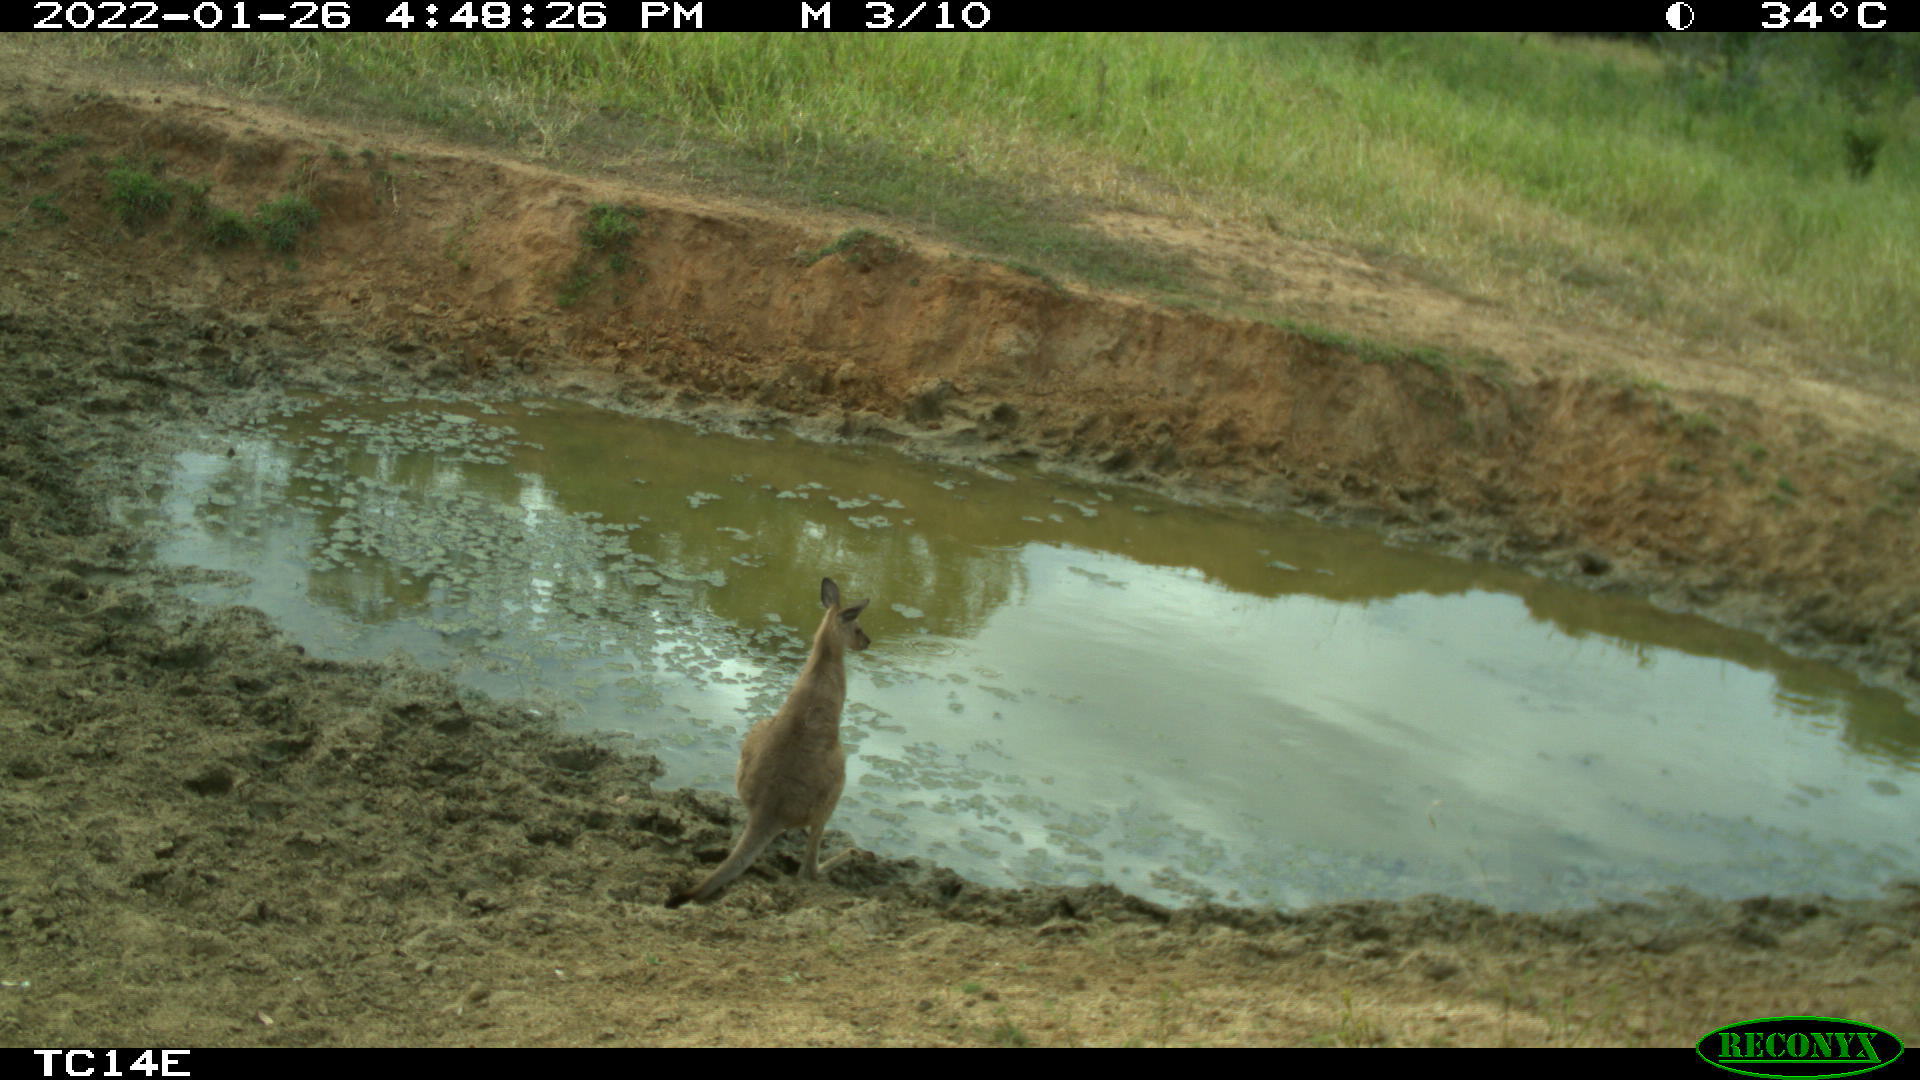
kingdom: Animalia
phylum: Chordata
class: Mammalia
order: Diprotodontia
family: Macropodidae
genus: Macropus
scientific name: Macropus giganteus
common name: Eastern grey kangaroo
